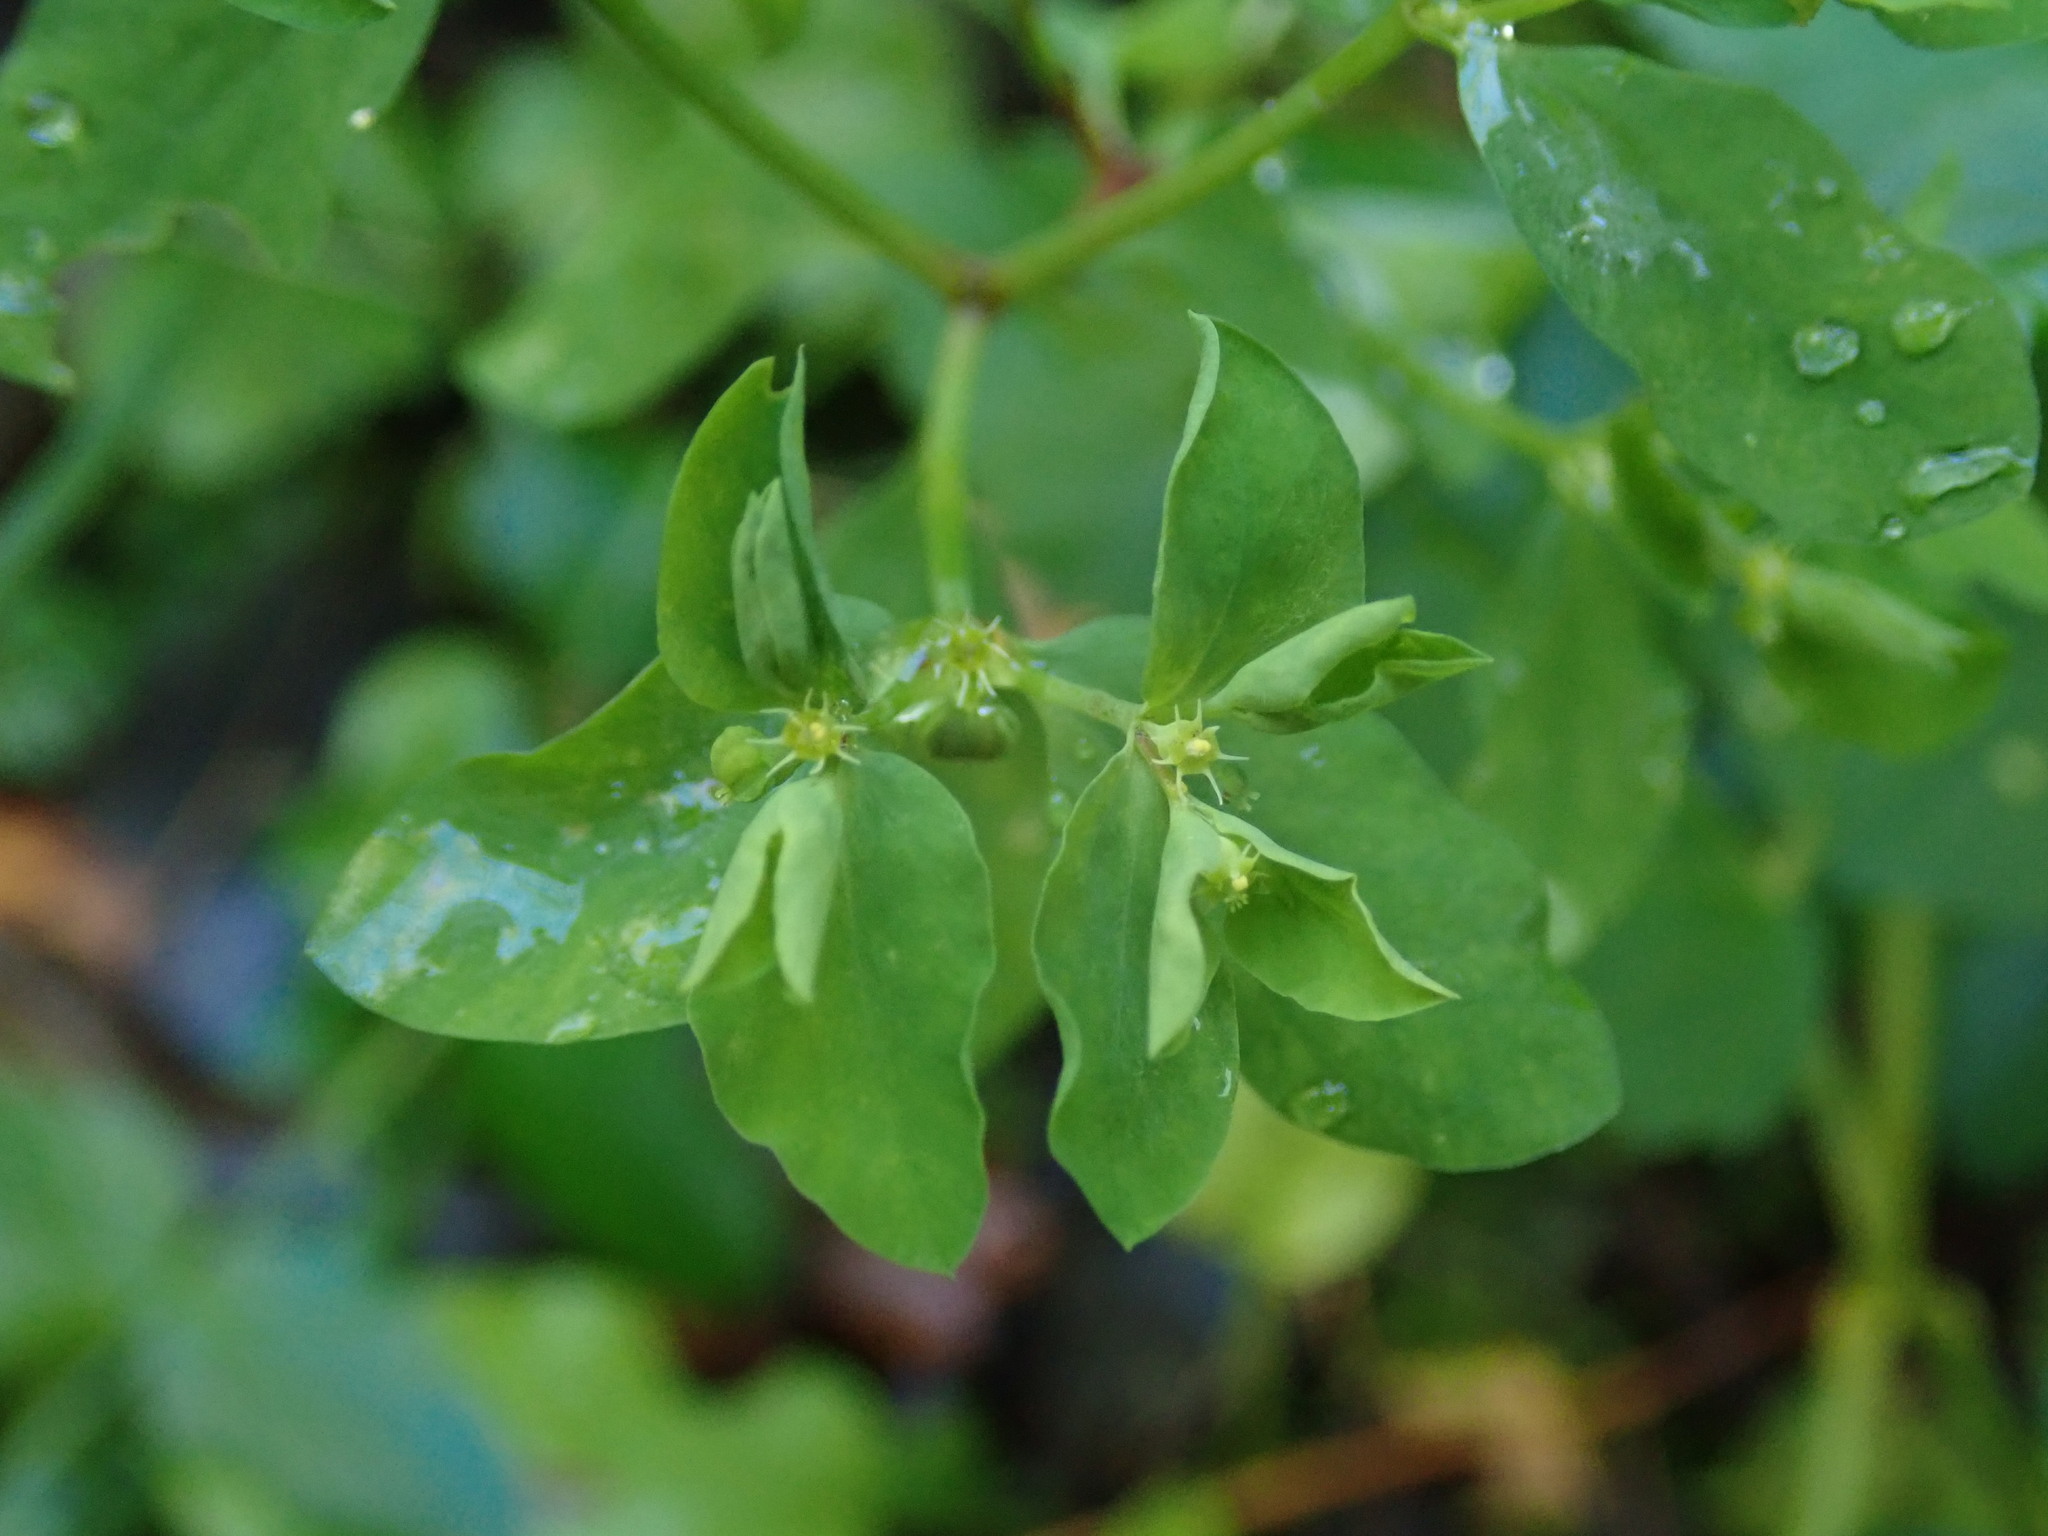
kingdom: Plantae
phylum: Tracheophyta
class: Magnoliopsida
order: Malpighiales
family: Euphorbiaceae
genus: Euphorbia
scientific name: Euphorbia peplus
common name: Petty spurge
